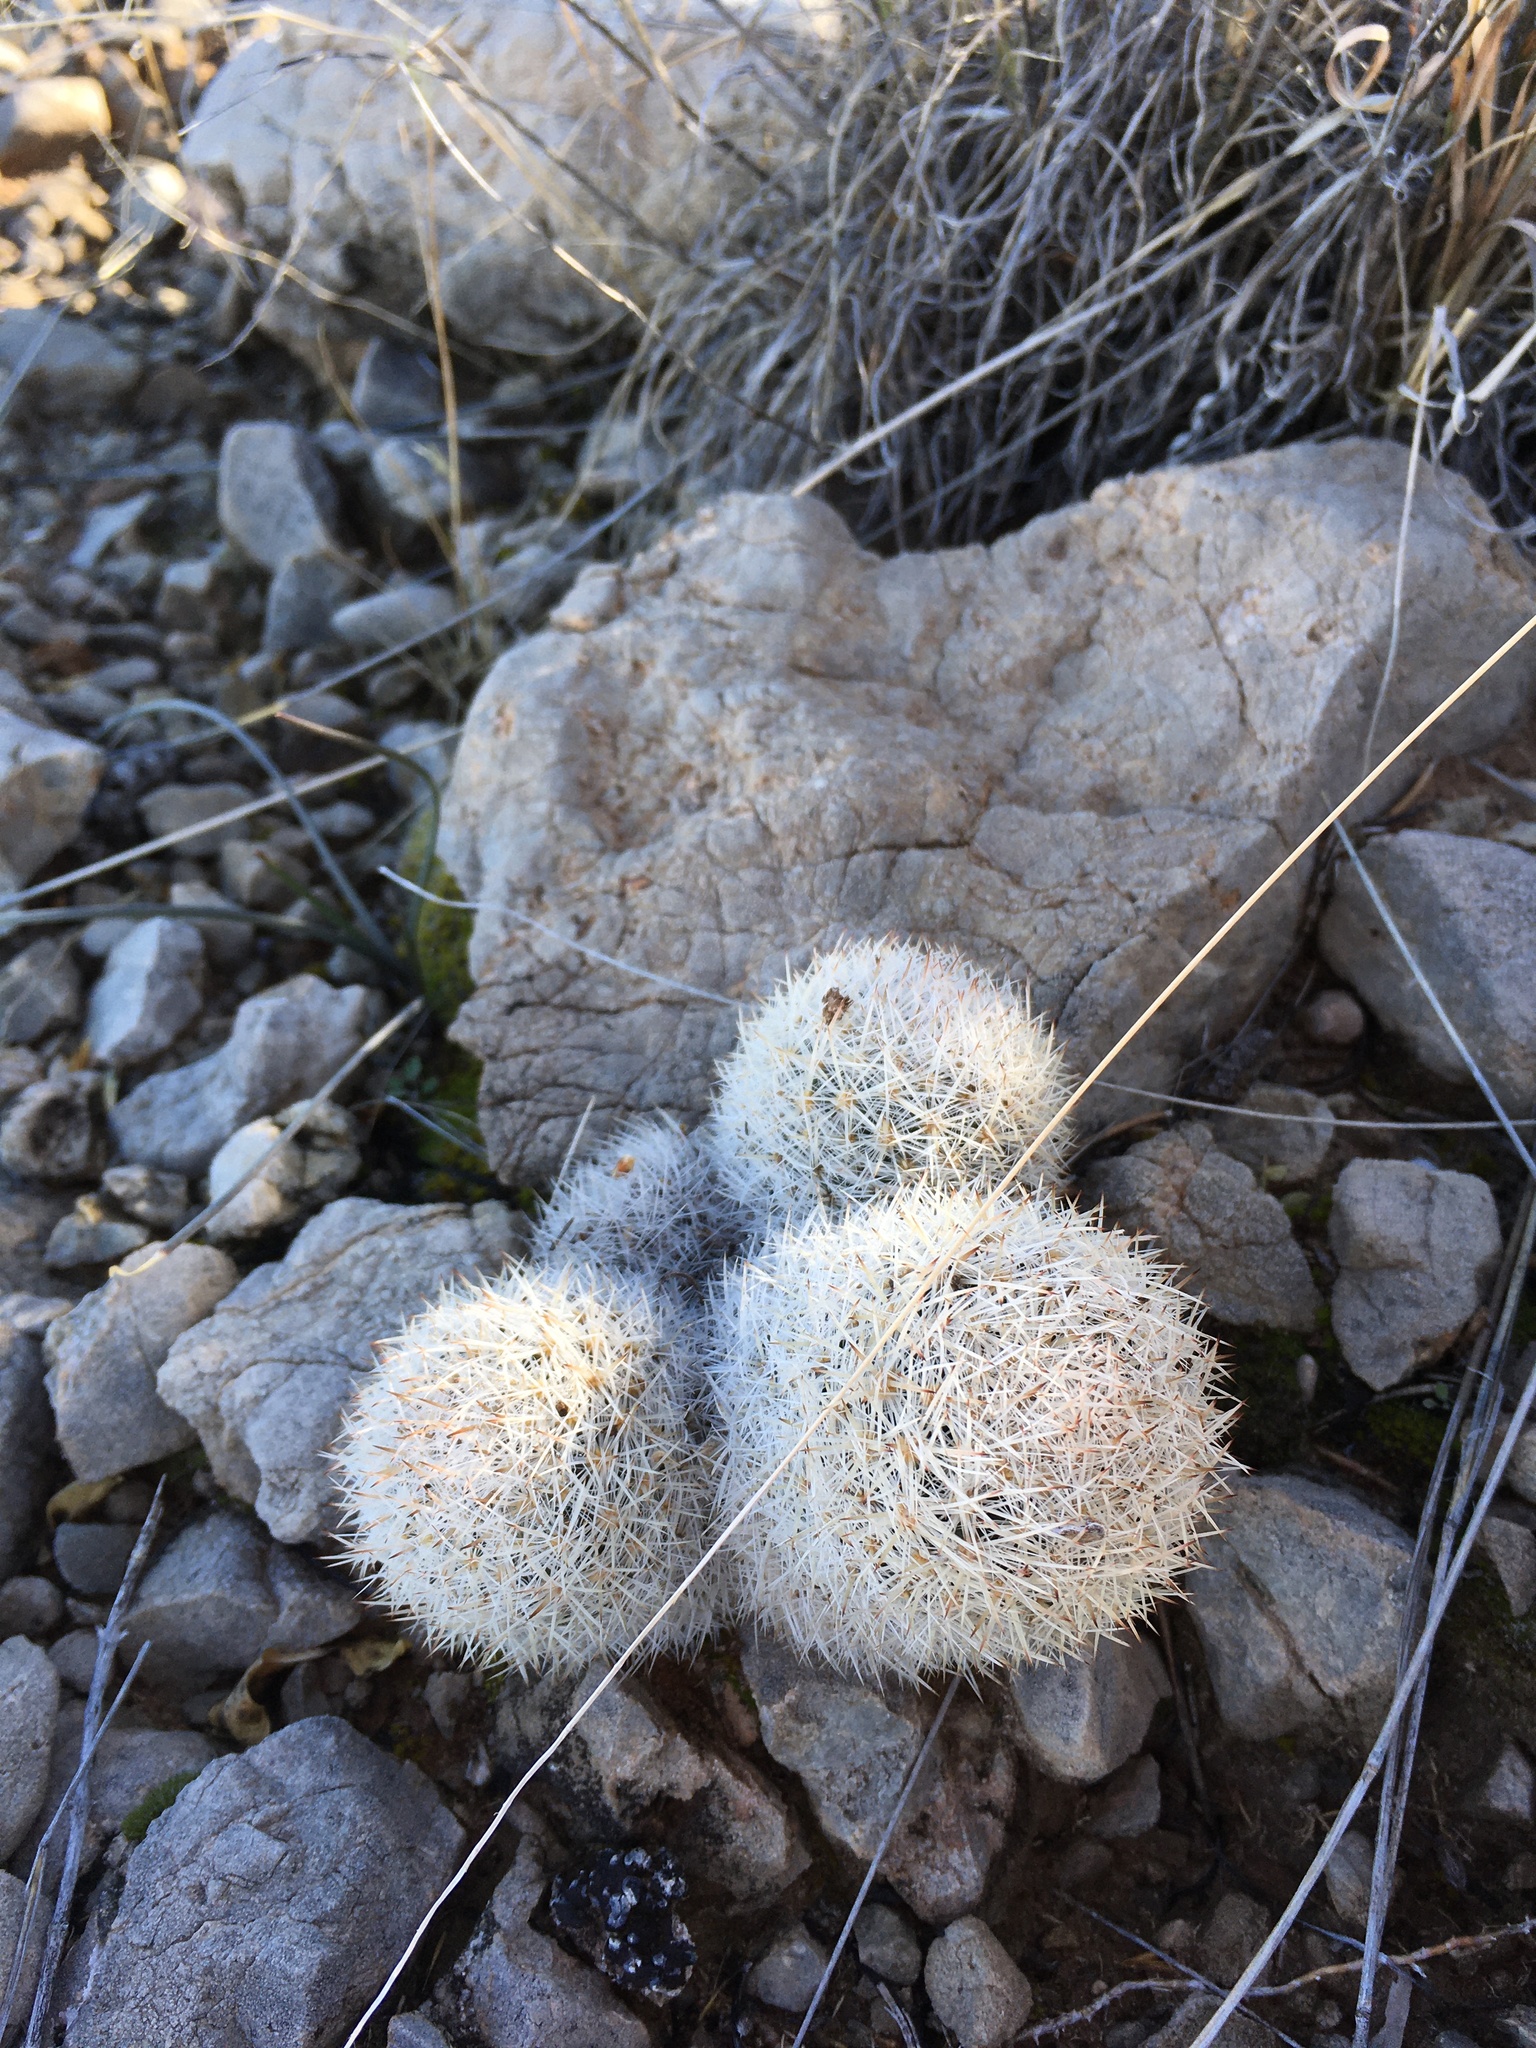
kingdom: Plantae
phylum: Tracheophyta
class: Magnoliopsida
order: Caryophyllales
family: Cactaceae
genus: Pelecyphora
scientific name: Pelecyphora sneedii
